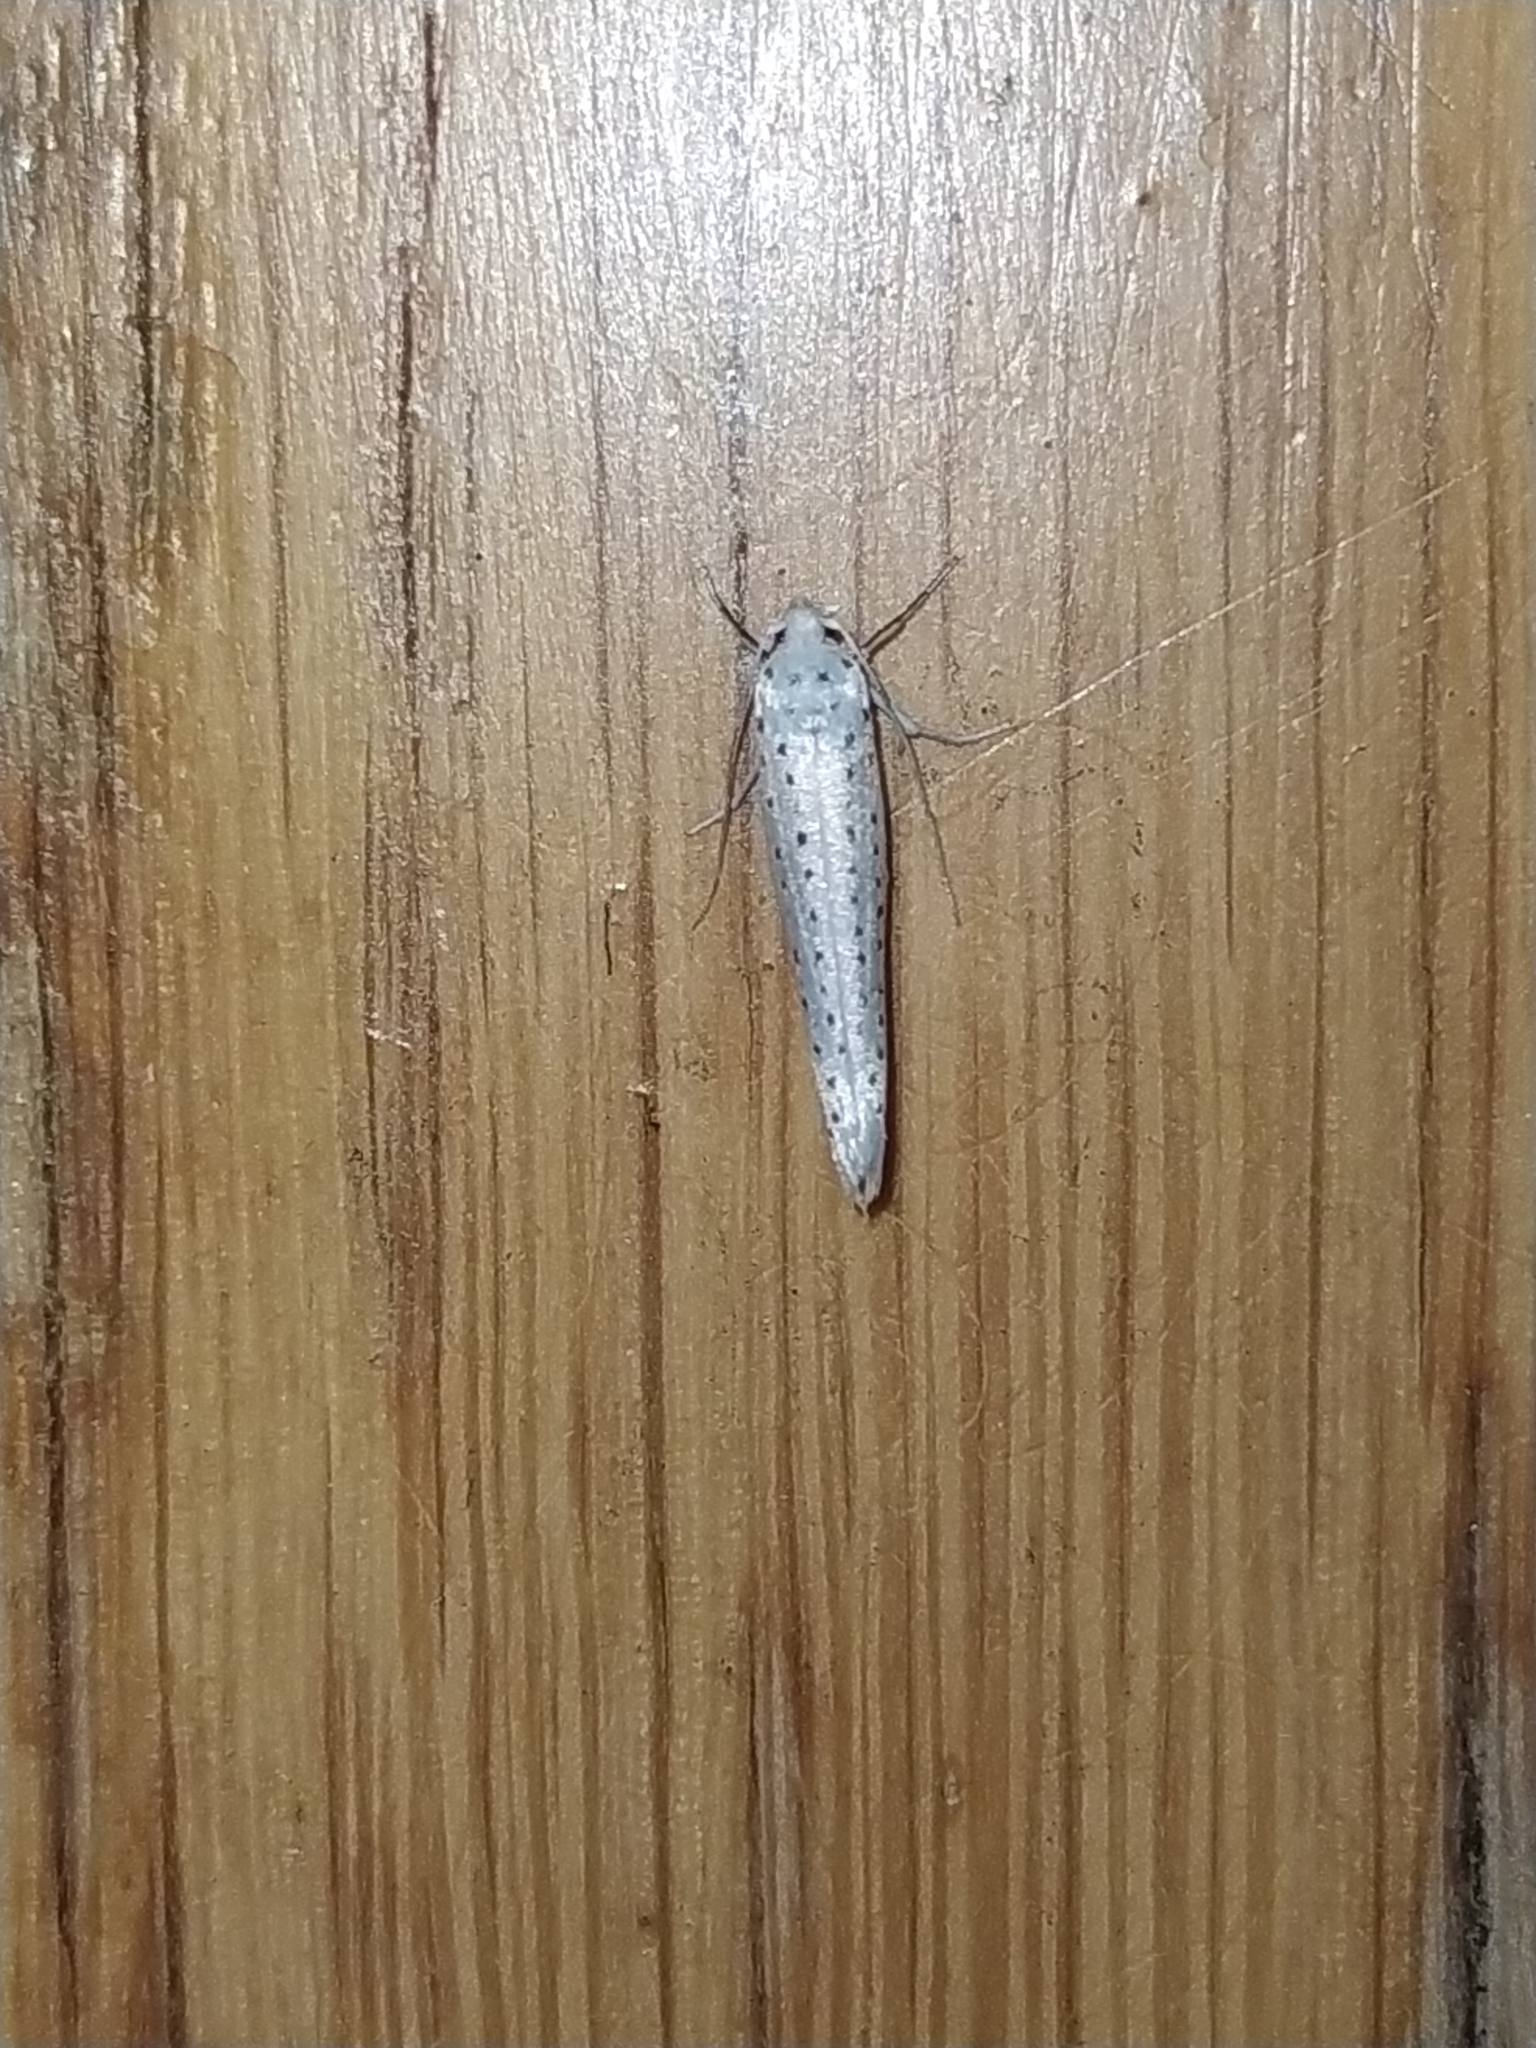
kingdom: Animalia
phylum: Arthropoda
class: Insecta
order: Lepidoptera
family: Yponomeutidae
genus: Yponomeuta
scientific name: Yponomeuta evonymella
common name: Bird-cherry ermine
